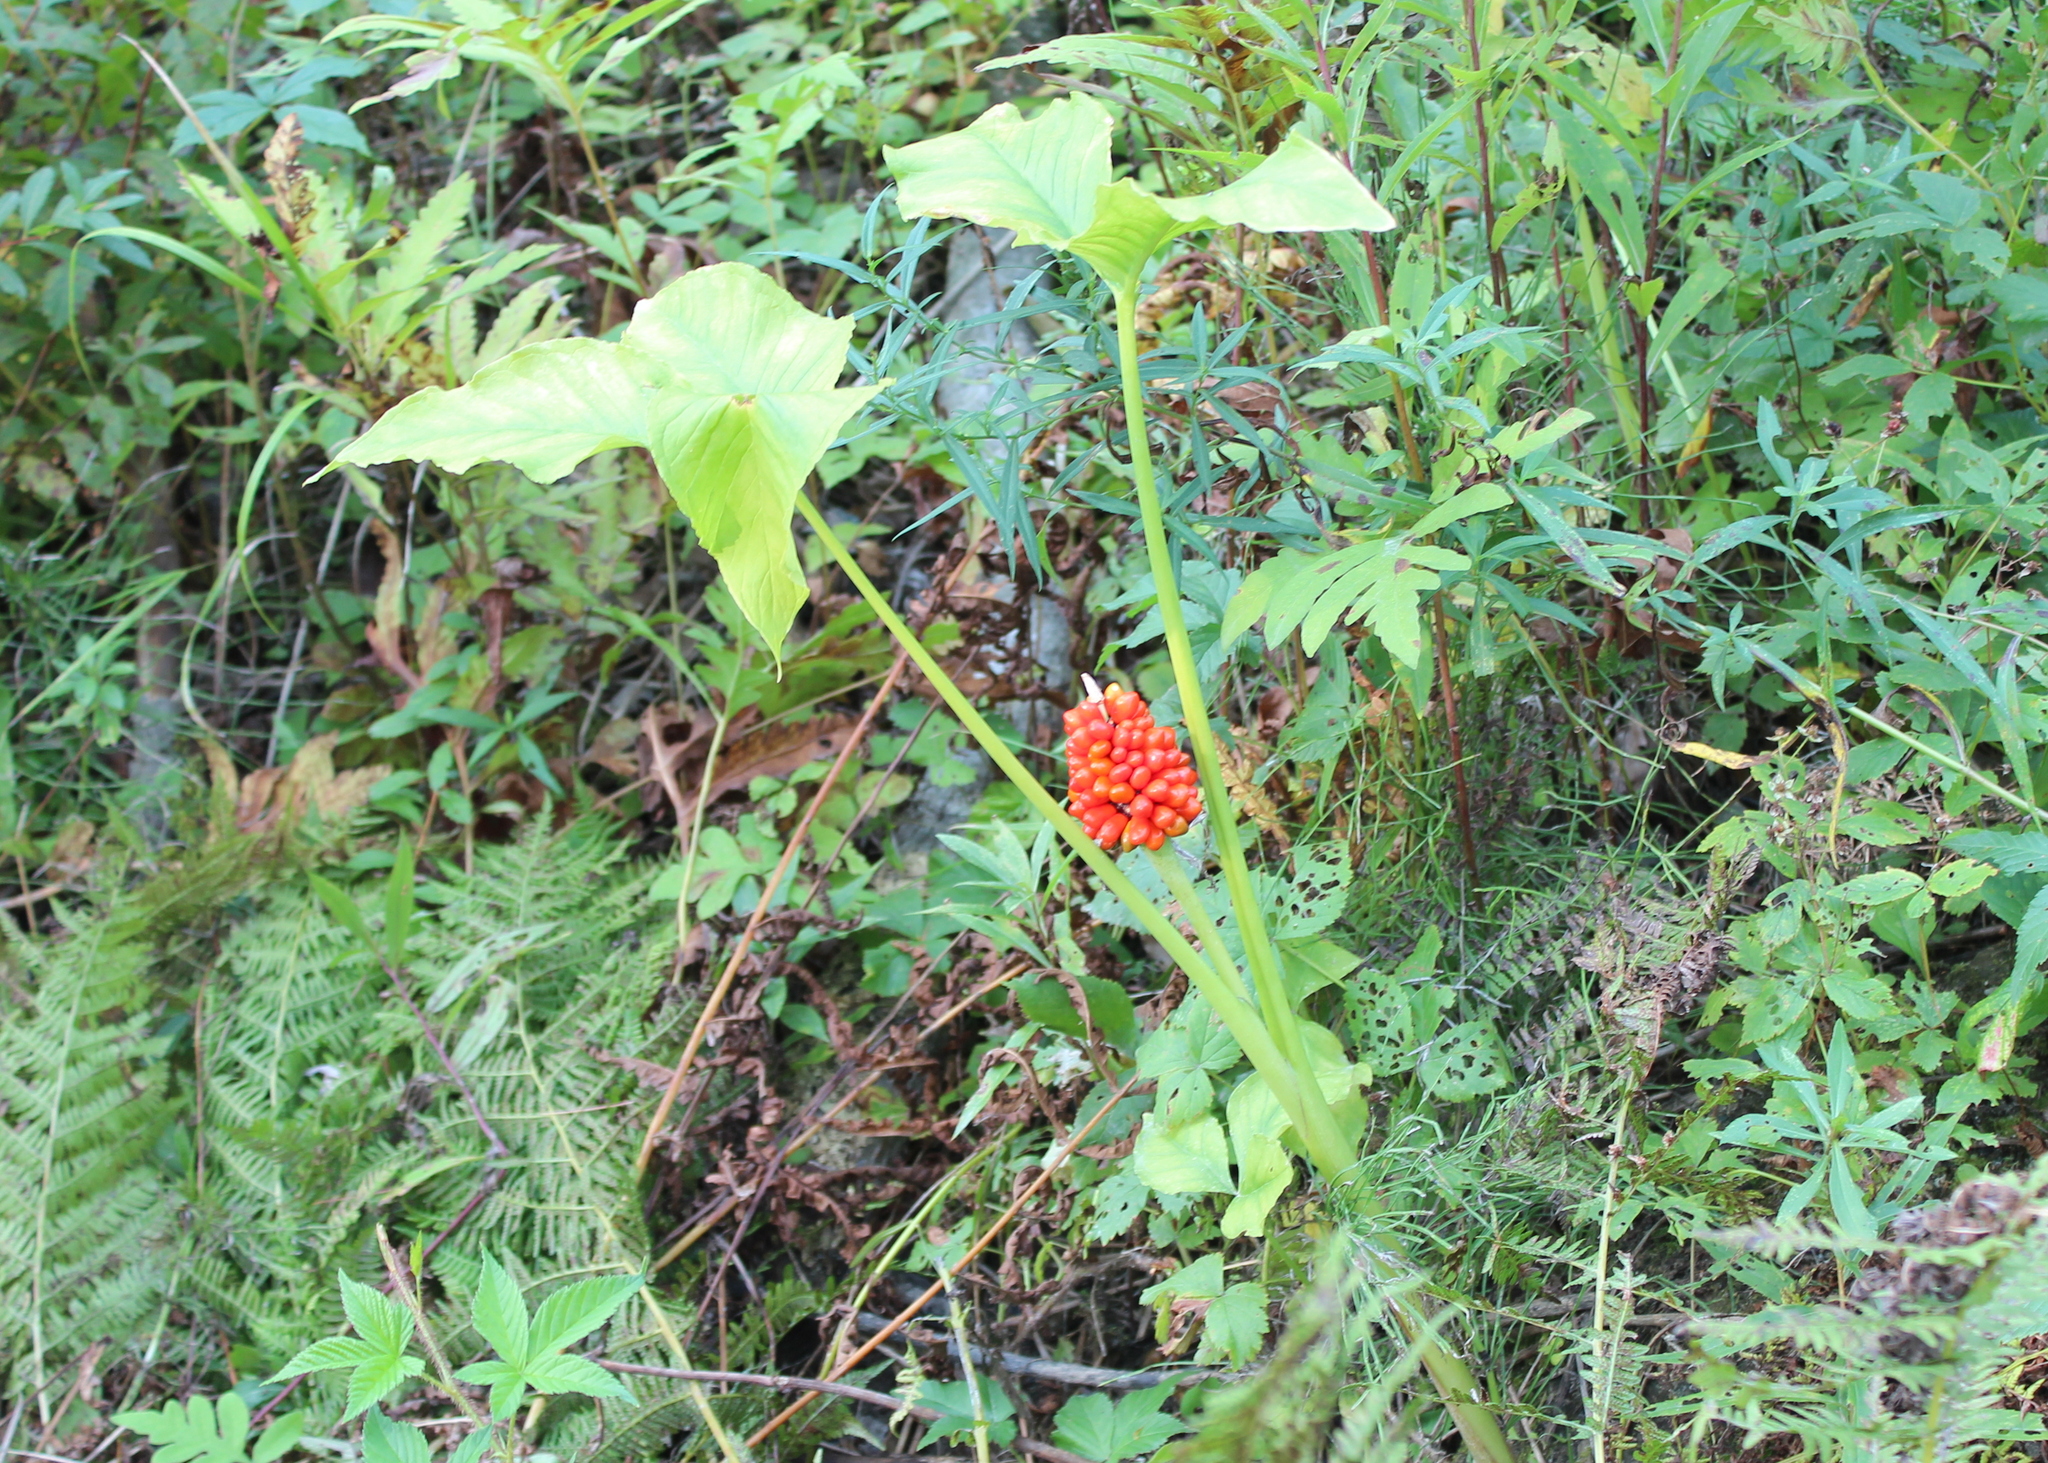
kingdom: Plantae
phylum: Tracheophyta
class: Liliopsida
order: Alismatales
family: Araceae
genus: Arisaema
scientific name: Arisaema triphyllum
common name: Jack-in-the-pulpit
